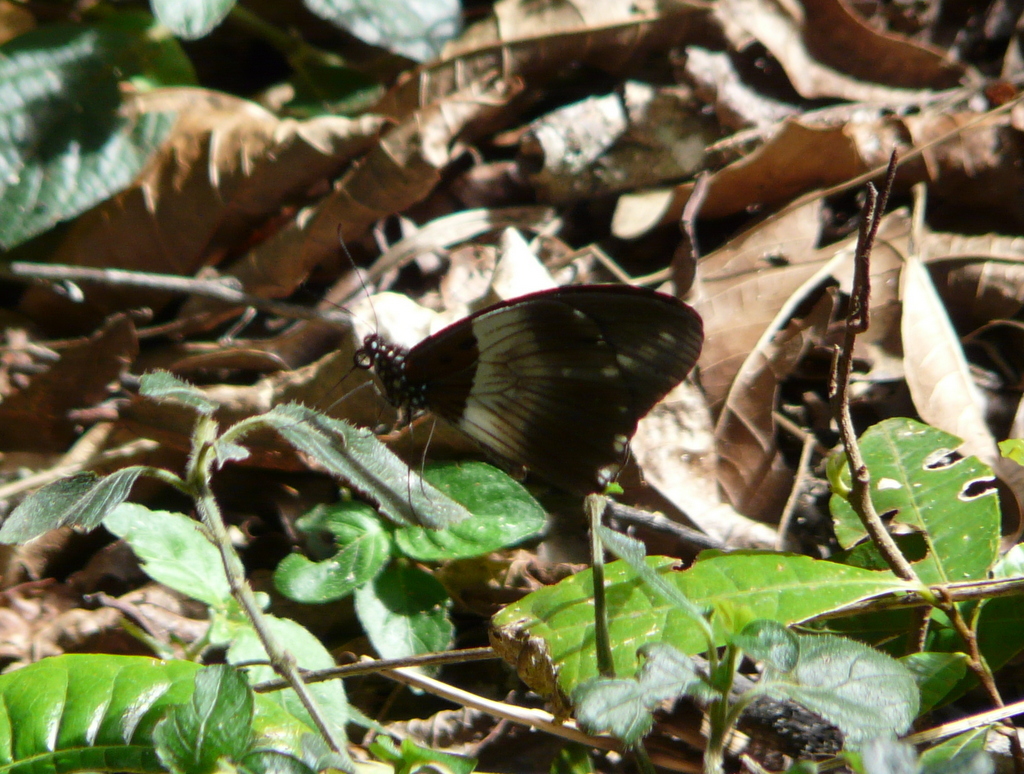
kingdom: Animalia
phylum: Arthropoda
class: Insecta
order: Lepidoptera
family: Papilionidae
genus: Papilio
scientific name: Papilio jacksoni
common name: Jackson's swallowtail
